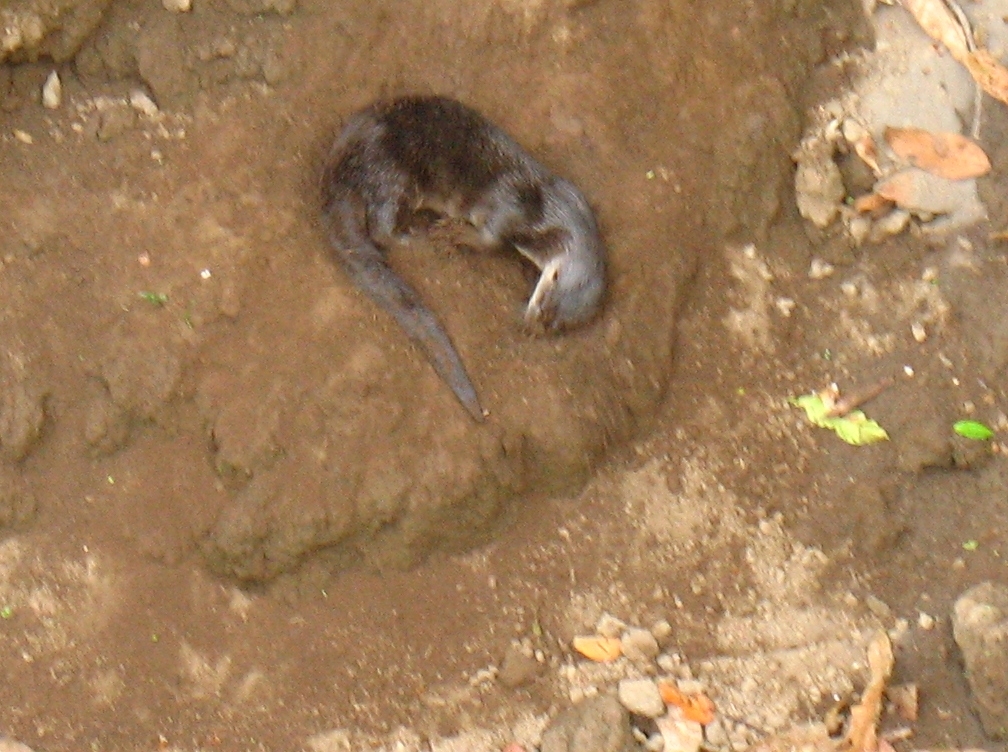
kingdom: Animalia
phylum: Chordata
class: Mammalia
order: Carnivora
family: Mustelidae
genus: Lontra
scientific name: Lontra longicaudis
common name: Neotropical otter
